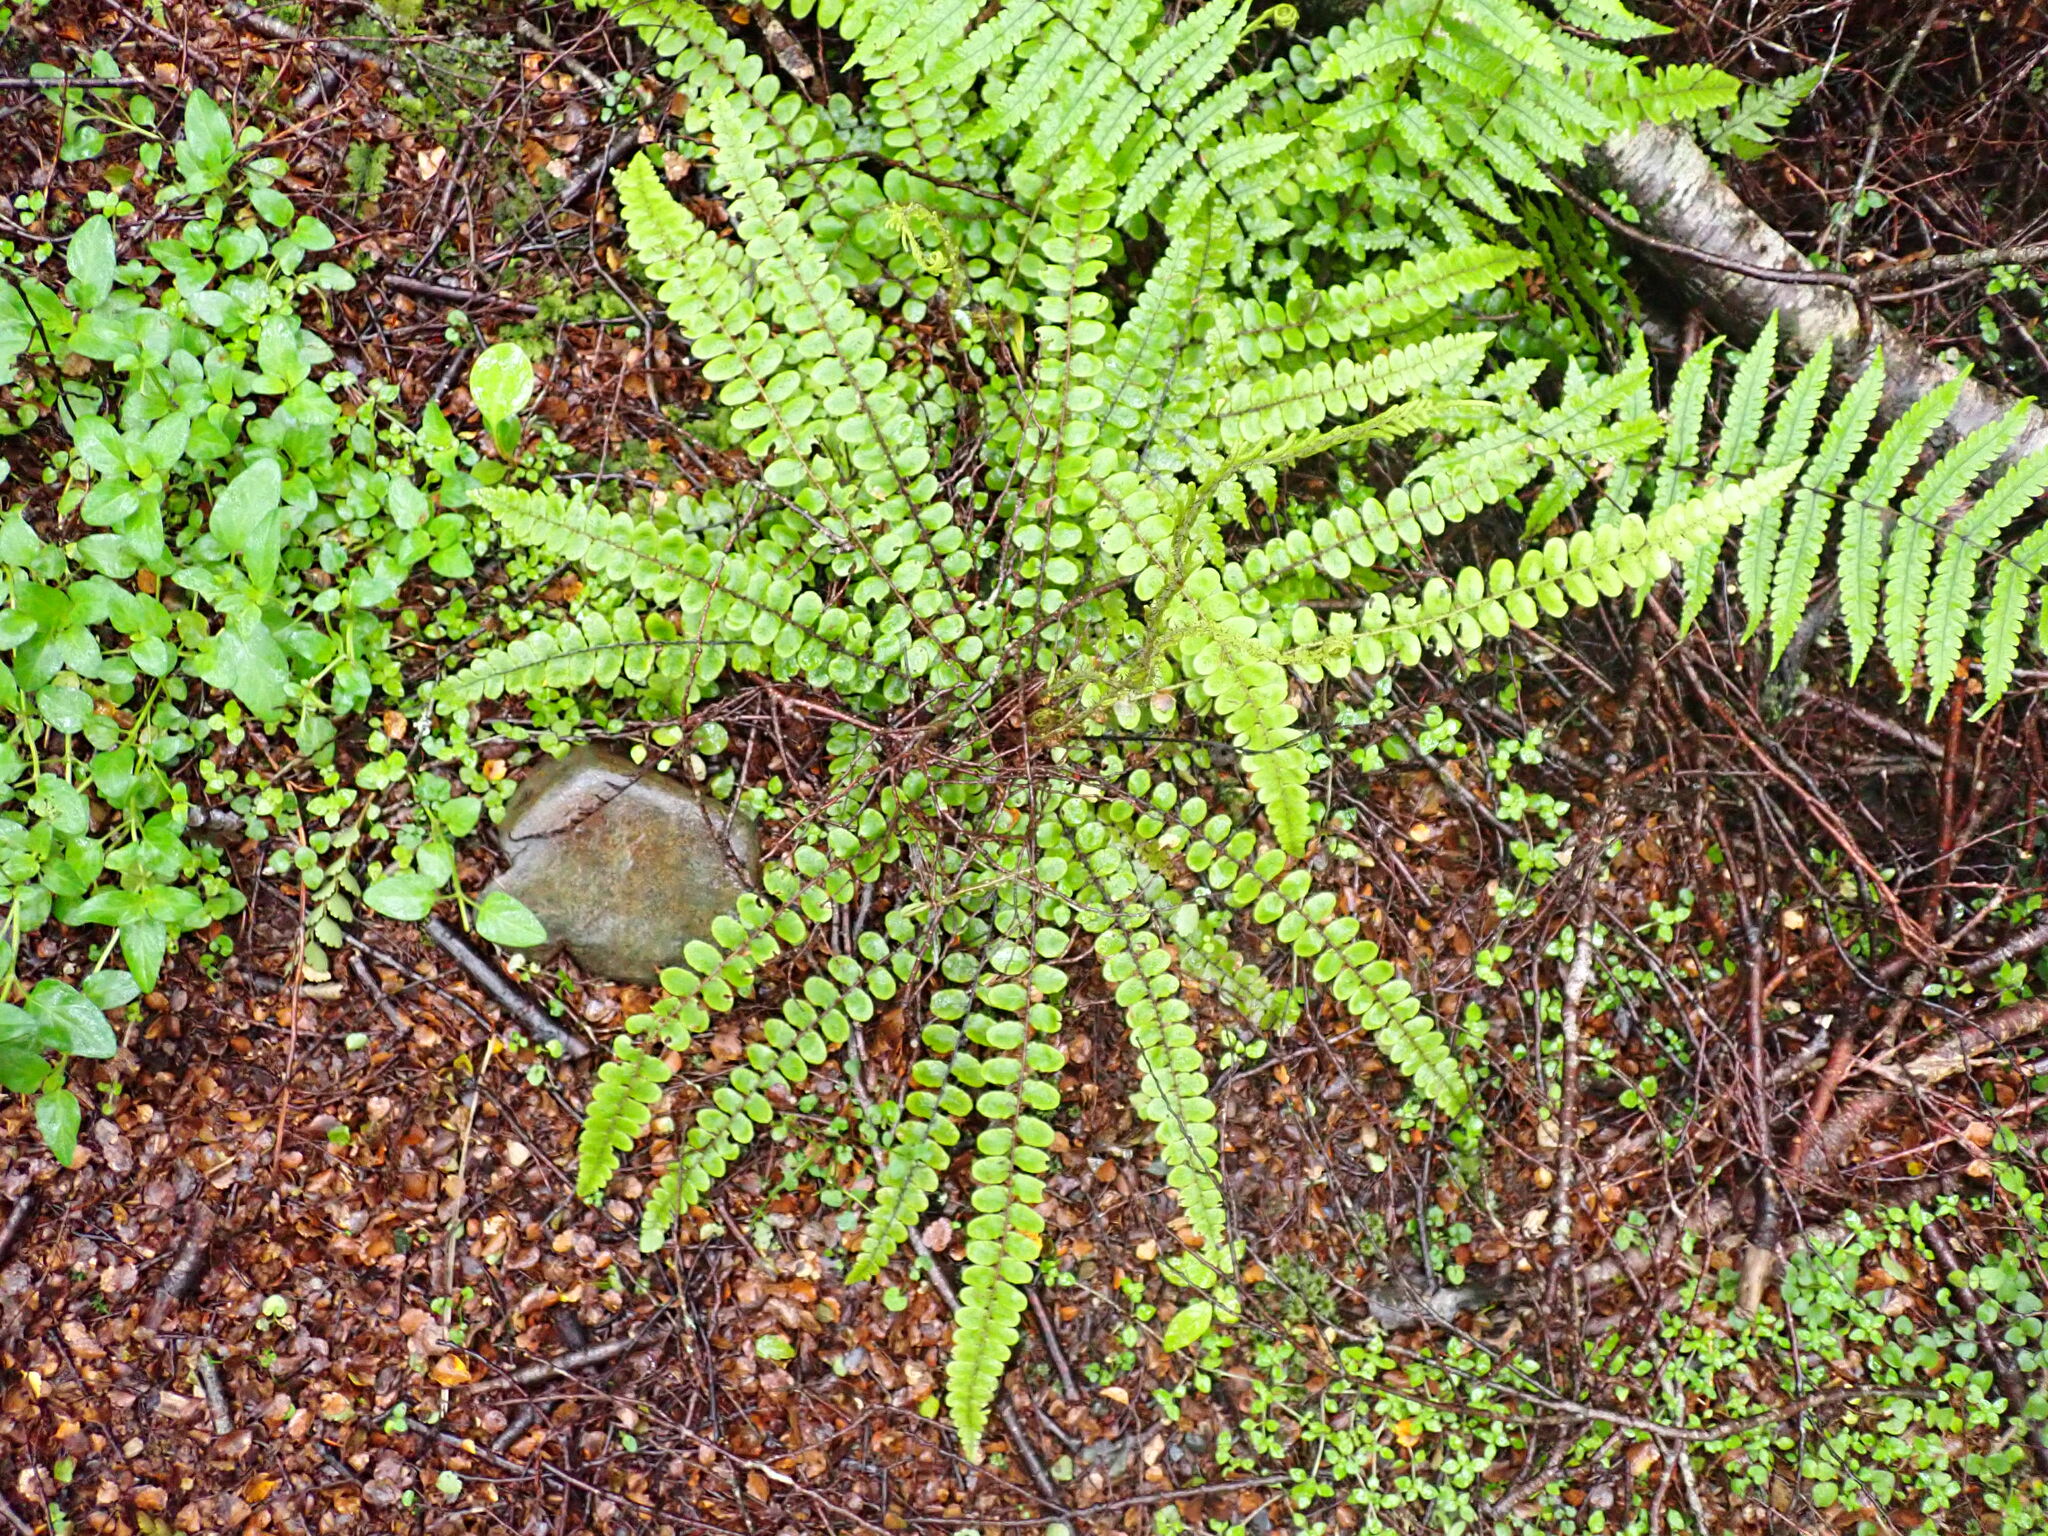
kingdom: Plantae
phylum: Tracheophyta
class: Polypodiopsida
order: Polypodiales
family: Blechnaceae
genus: Cranfillia
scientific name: Cranfillia fluviatilis
